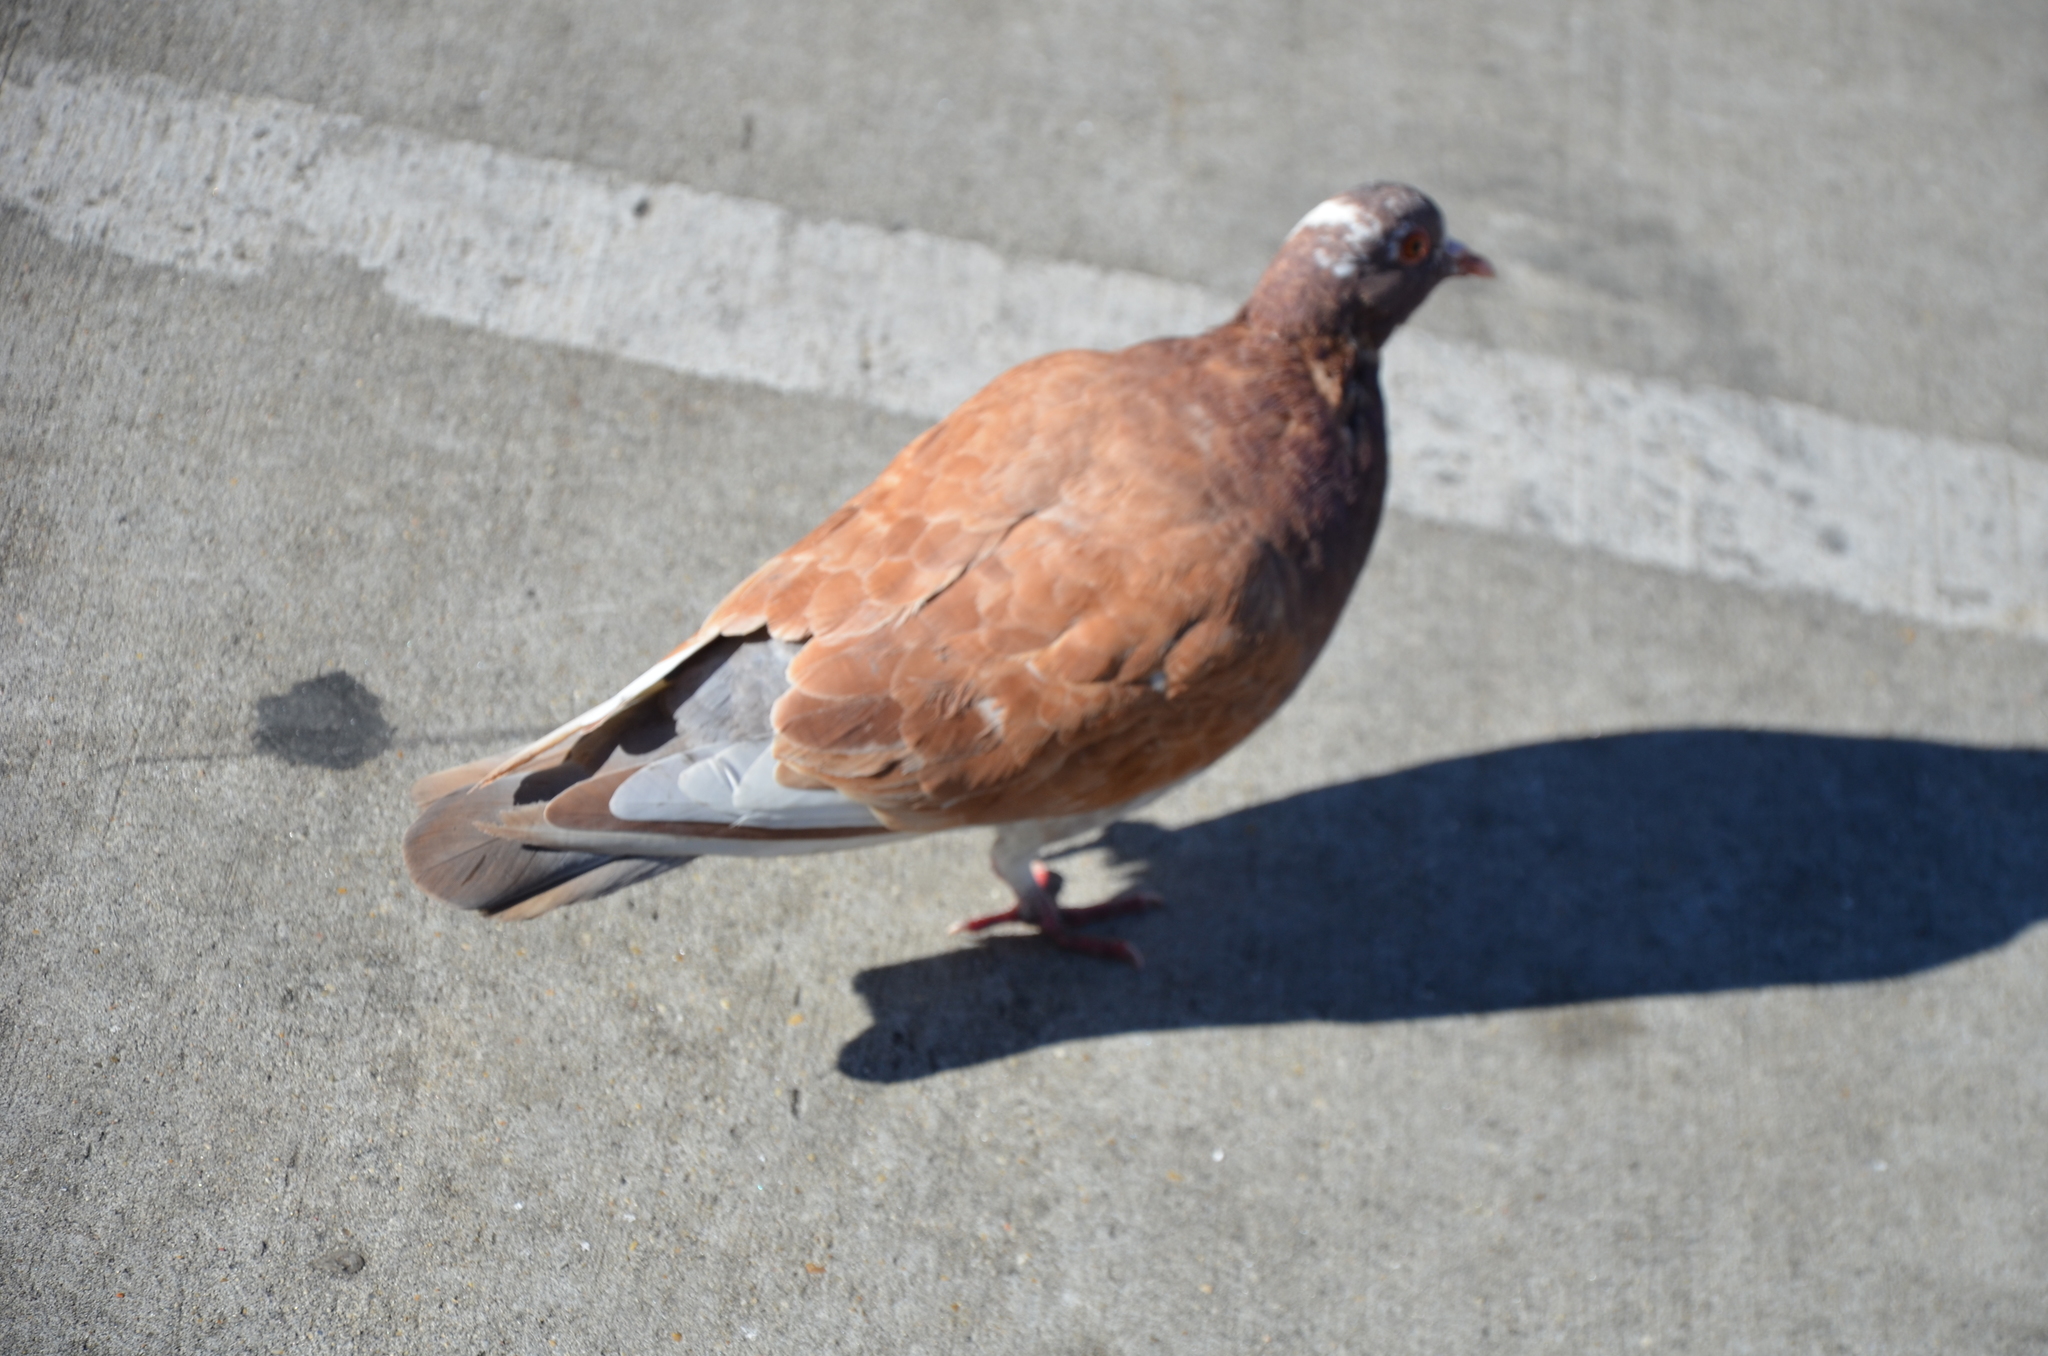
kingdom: Animalia
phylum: Chordata
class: Aves
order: Columbiformes
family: Columbidae
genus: Columba
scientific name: Columba livia
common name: Rock pigeon
